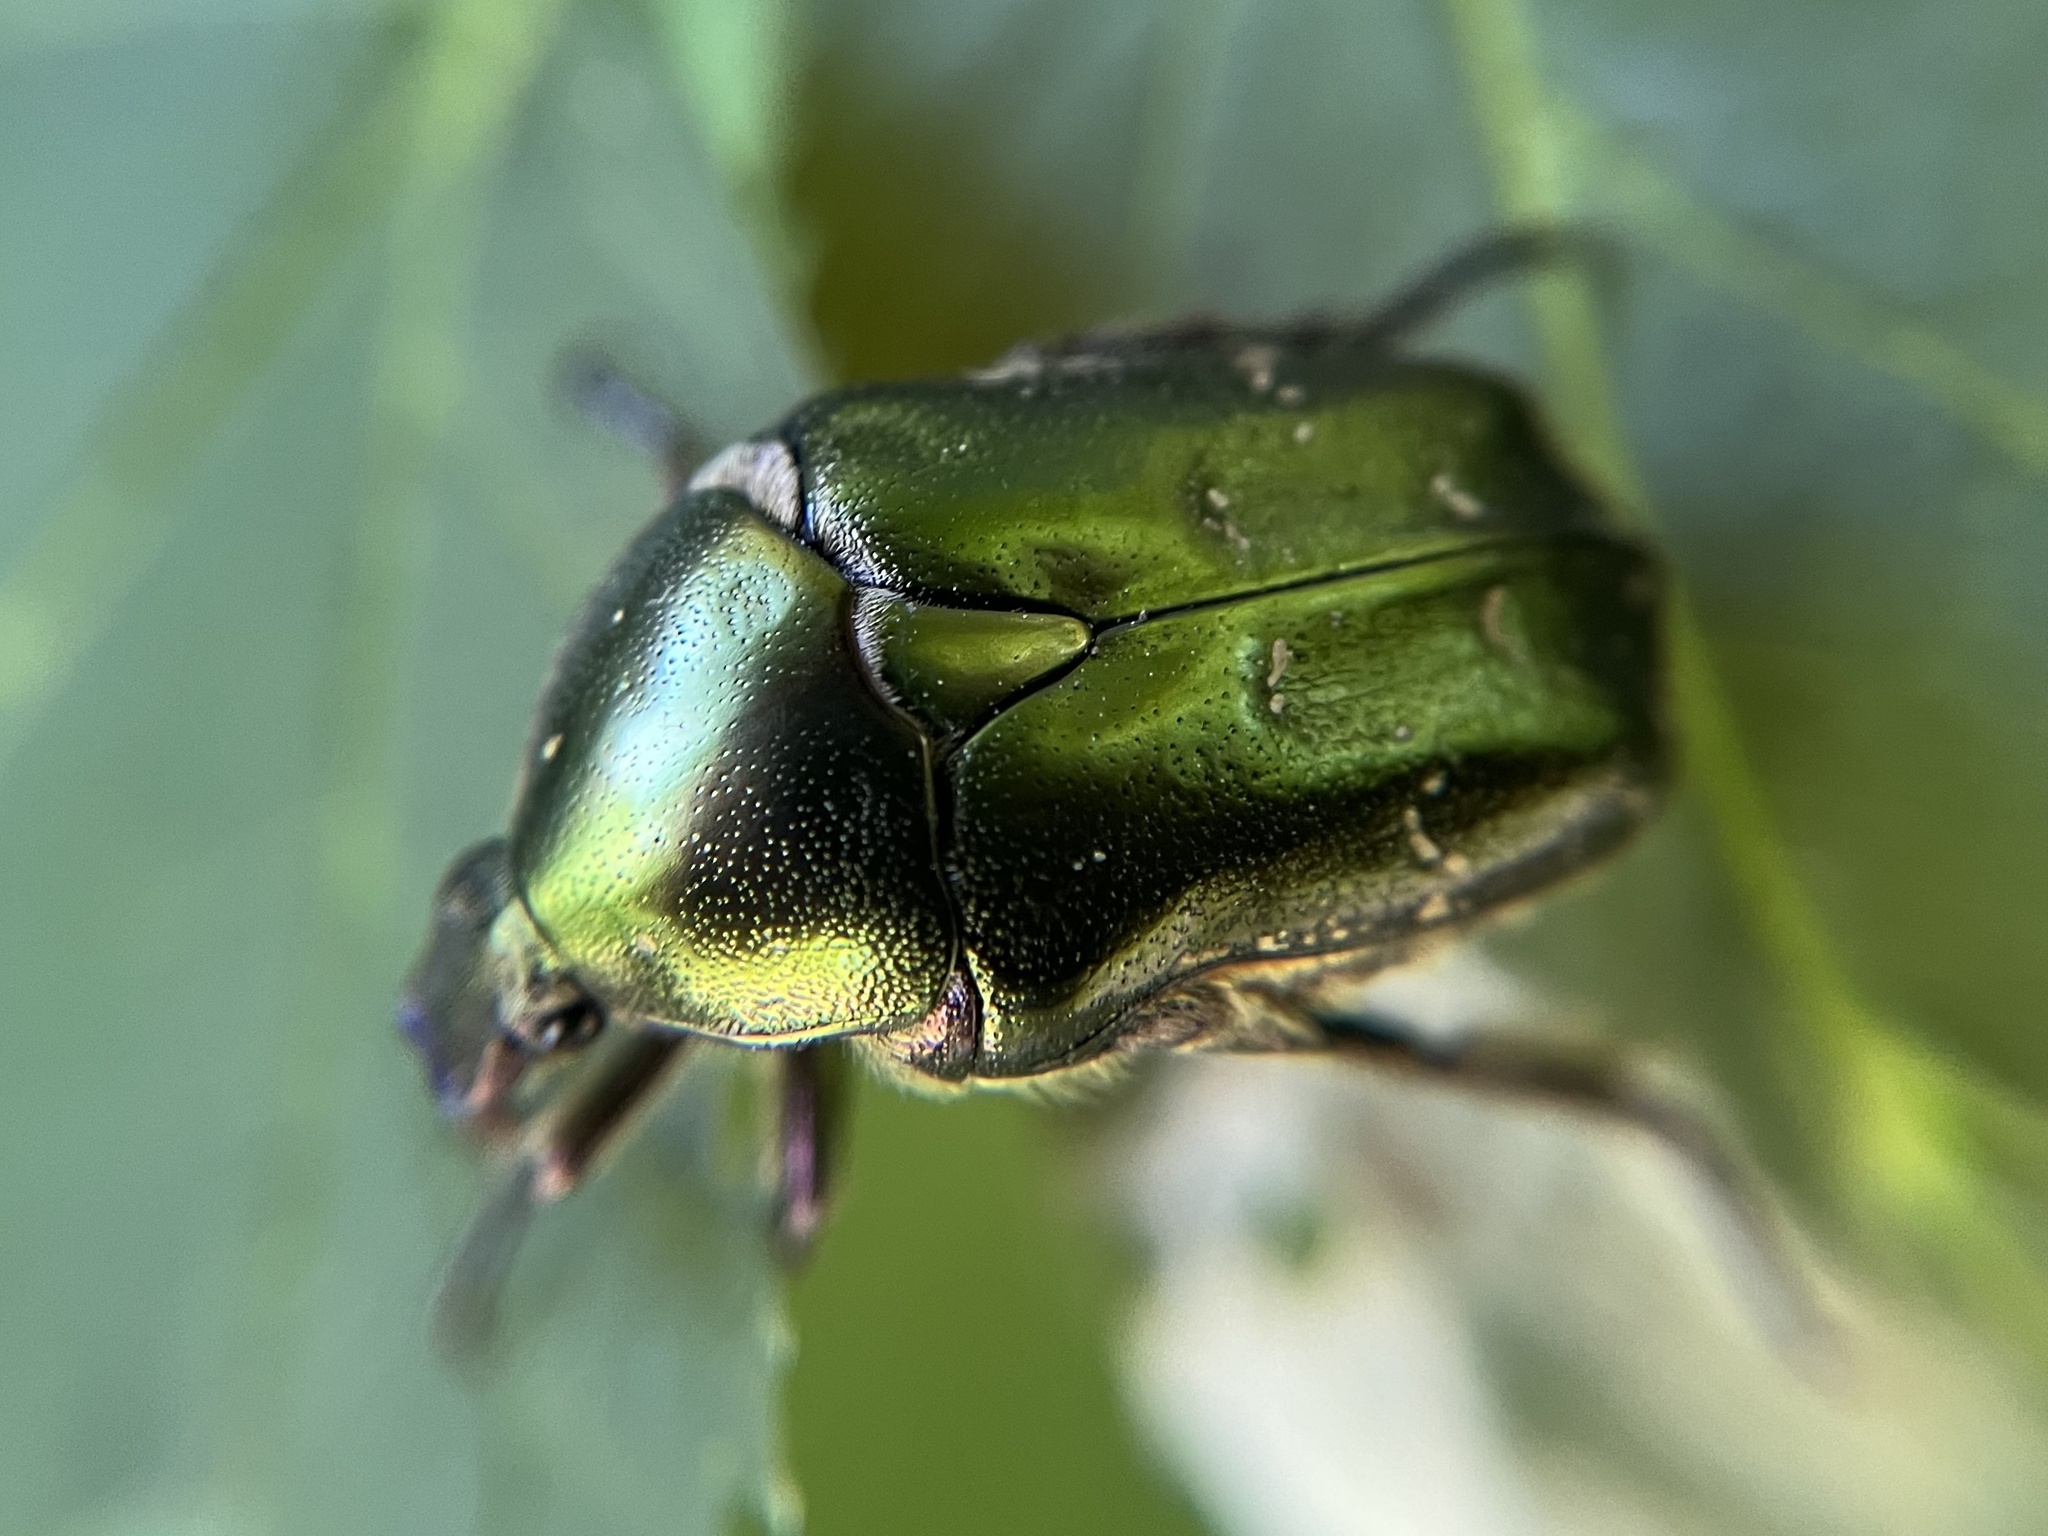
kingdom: Animalia
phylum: Arthropoda
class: Insecta
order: Coleoptera
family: Scarabaeidae
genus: Protaetia
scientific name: Protaetia cuprea
